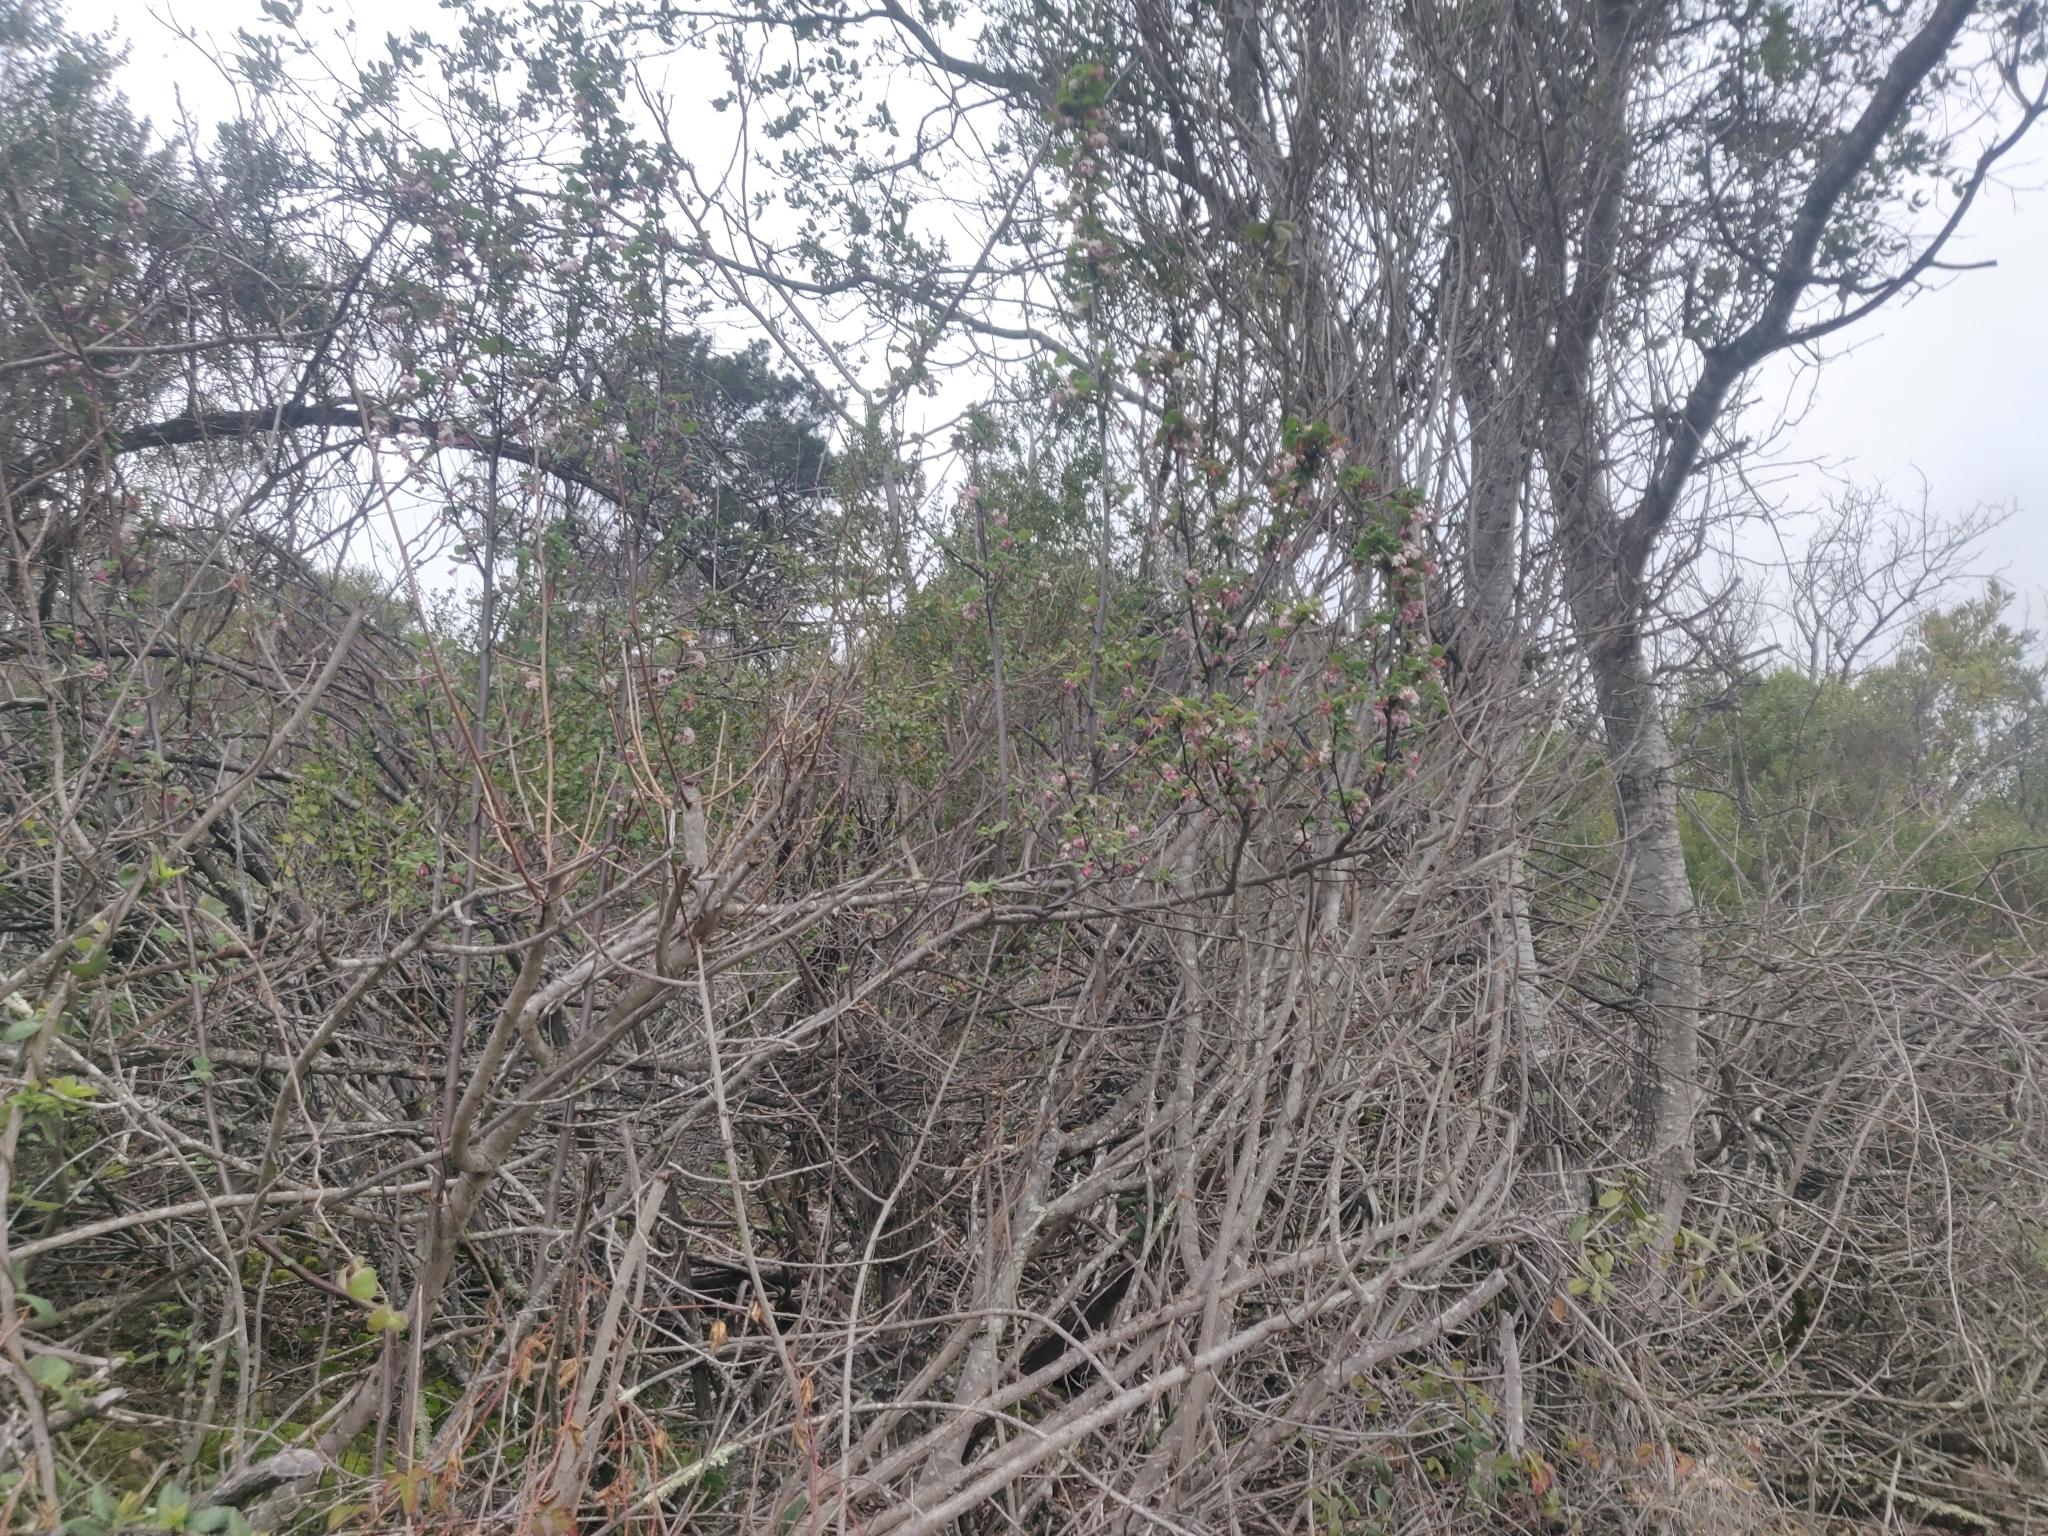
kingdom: Plantae
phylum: Tracheophyta
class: Magnoliopsida
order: Saxifragales
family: Grossulariaceae
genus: Ribes
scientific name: Ribes malvaceum
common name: Chaparral currant
